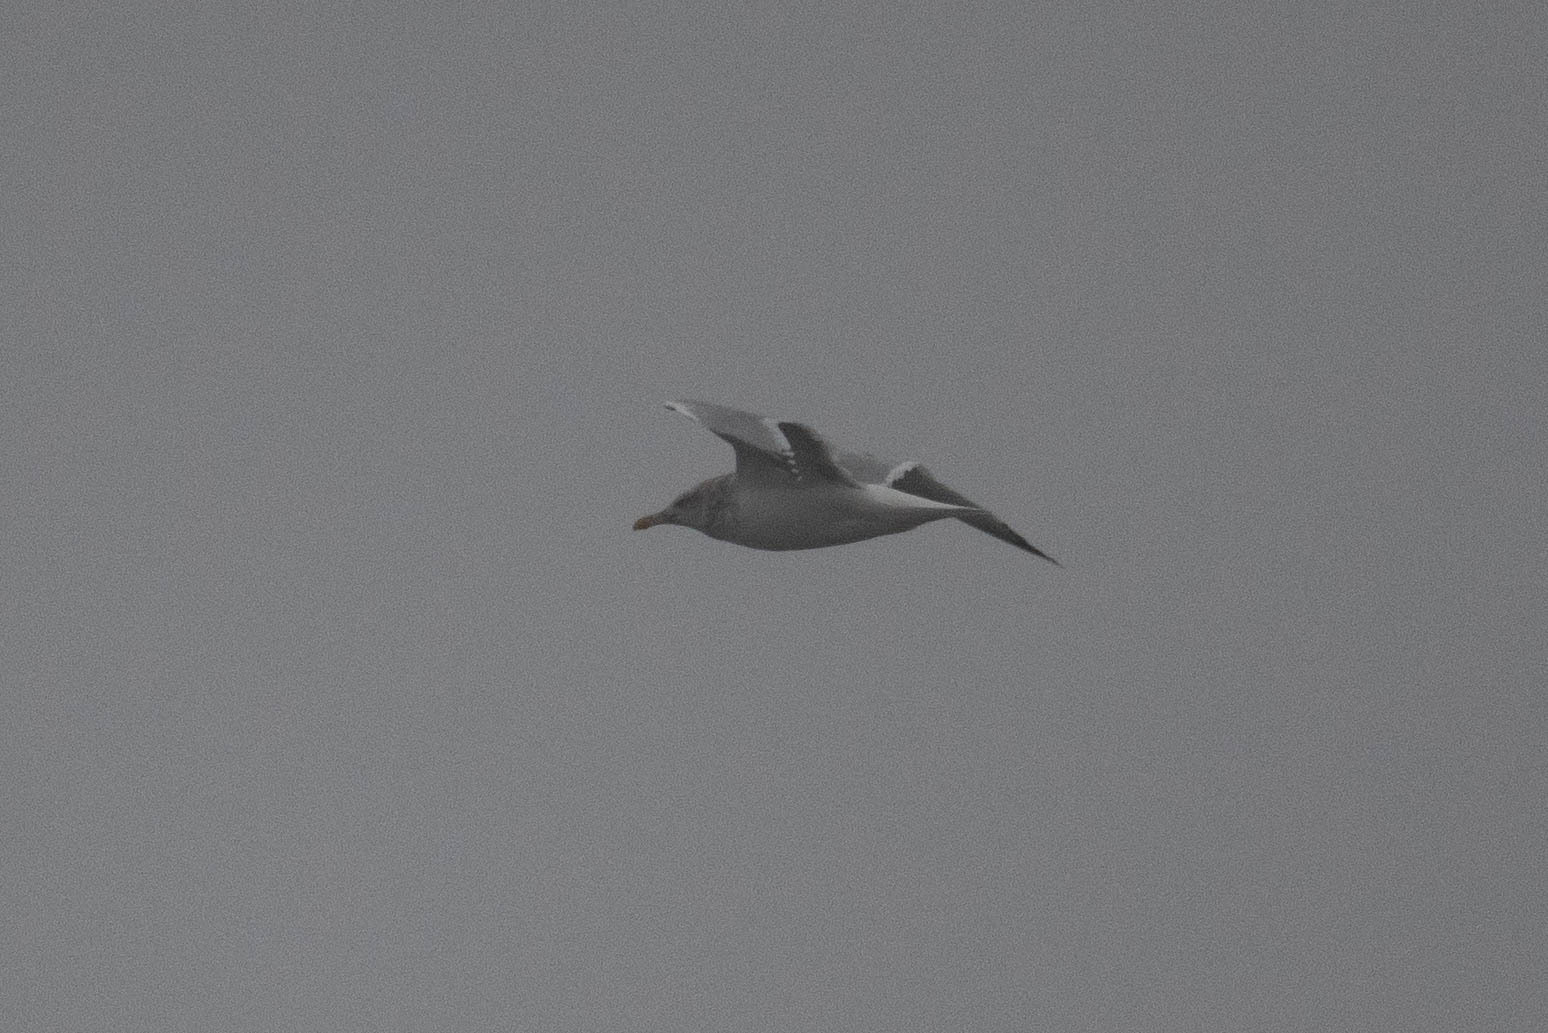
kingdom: Animalia
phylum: Chordata
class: Aves
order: Charadriiformes
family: Laridae
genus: Larus
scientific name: Larus argentatus
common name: Herring gull
